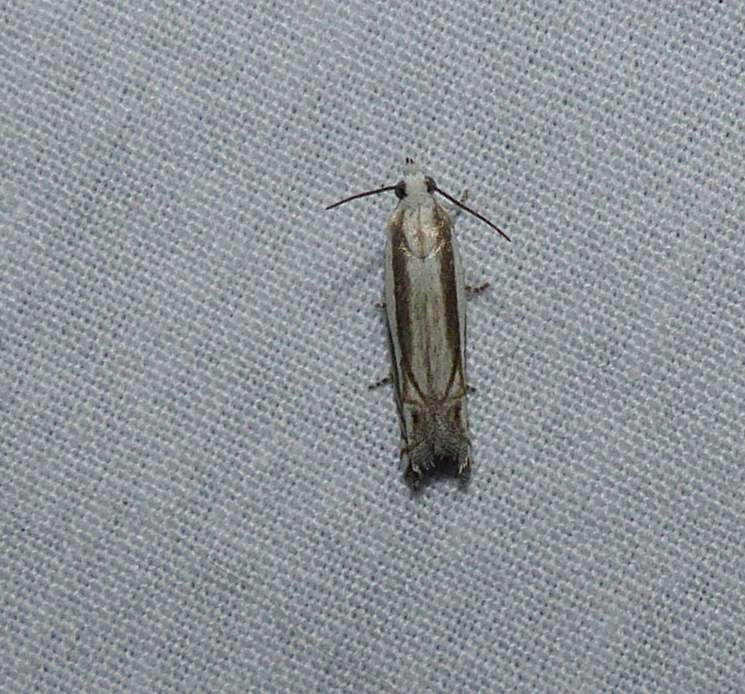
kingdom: Animalia
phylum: Arthropoda
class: Insecta
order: Lepidoptera
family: Tortricidae
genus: Eucosma
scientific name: Eucosma striatana
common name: Striated eucosma moth
